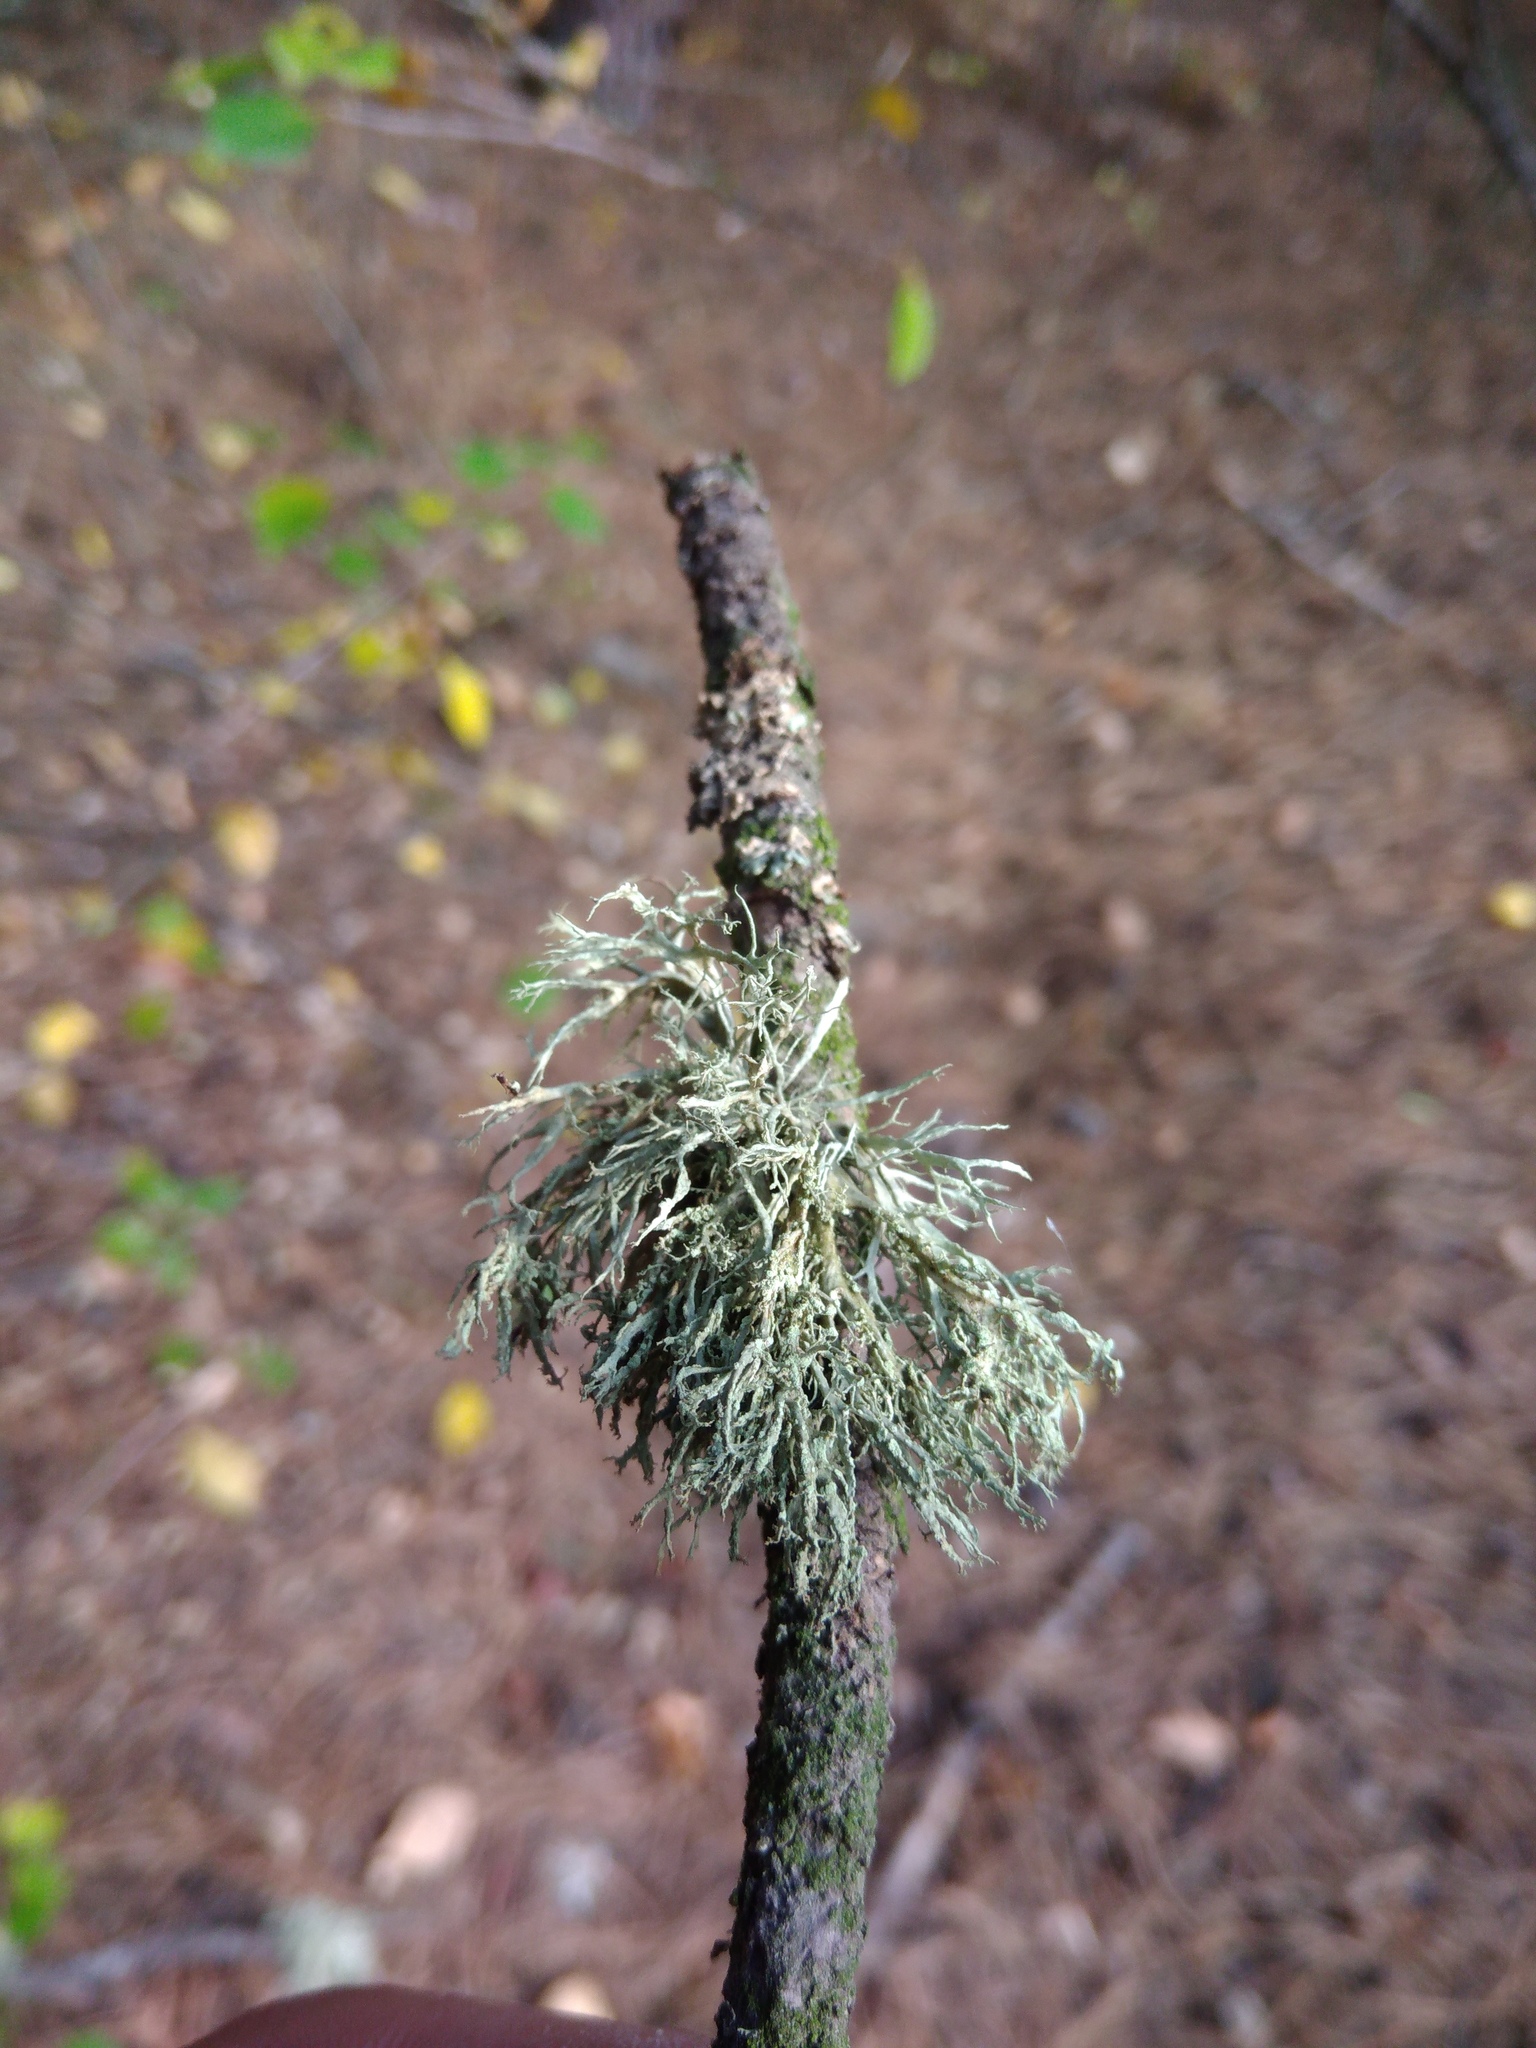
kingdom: Fungi
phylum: Ascomycota
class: Lecanoromycetes
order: Lecanorales
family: Ramalinaceae
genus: Ramalina
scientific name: Ramalina farinacea
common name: Farinose cartilage lichen
